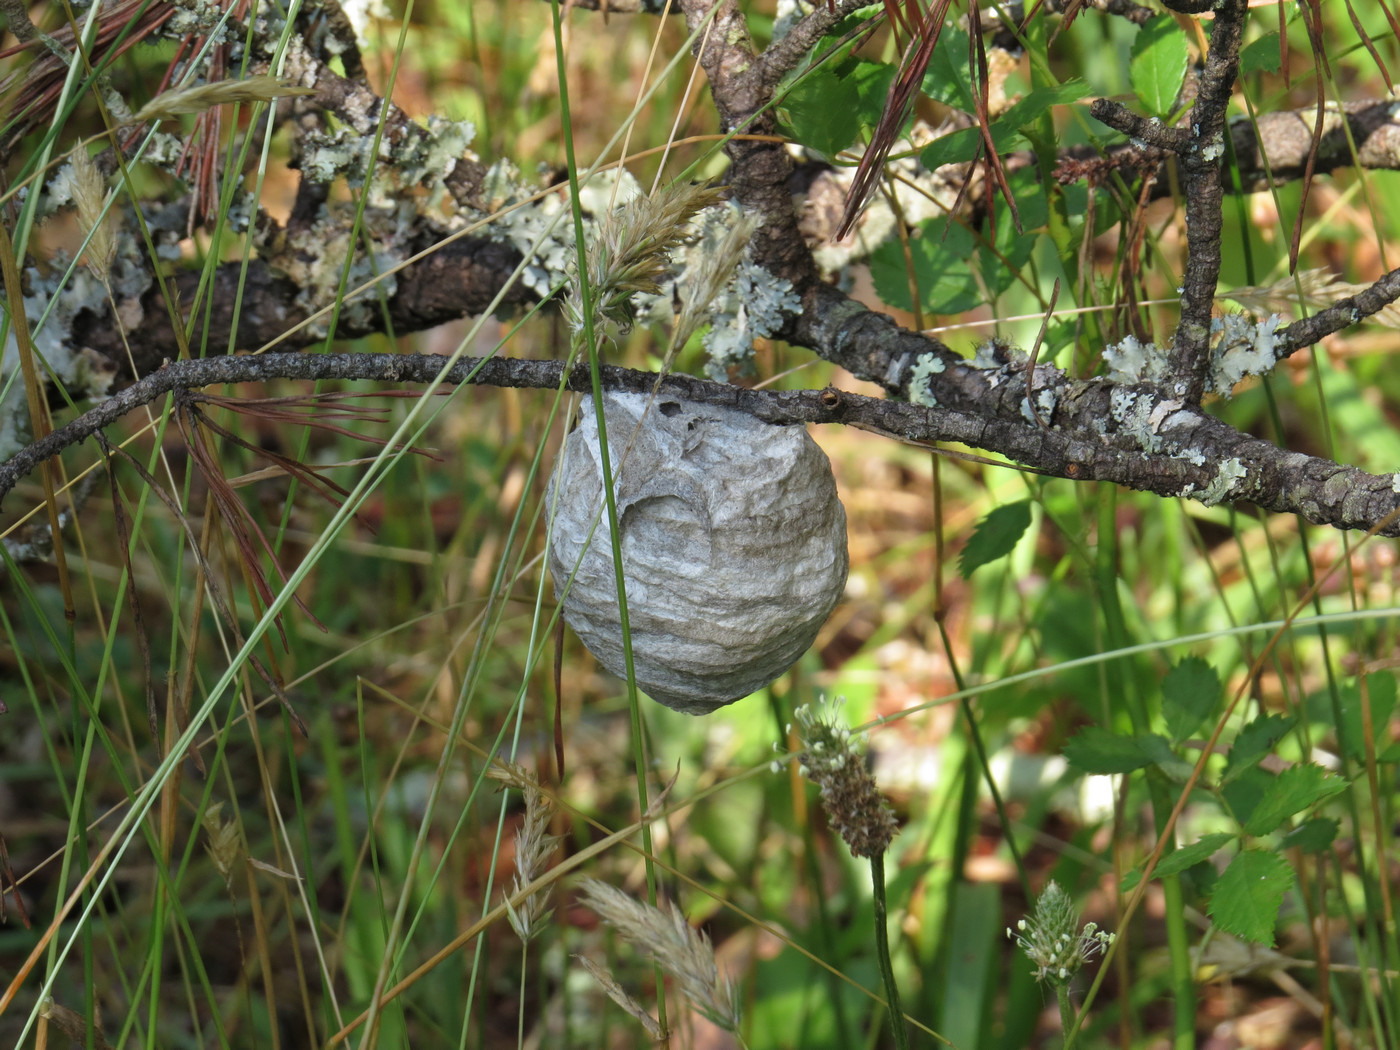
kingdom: Animalia
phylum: Arthropoda
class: Insecta
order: Hymenoptera
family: Vespidae
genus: Dolichovespula
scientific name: Dolichovespula
